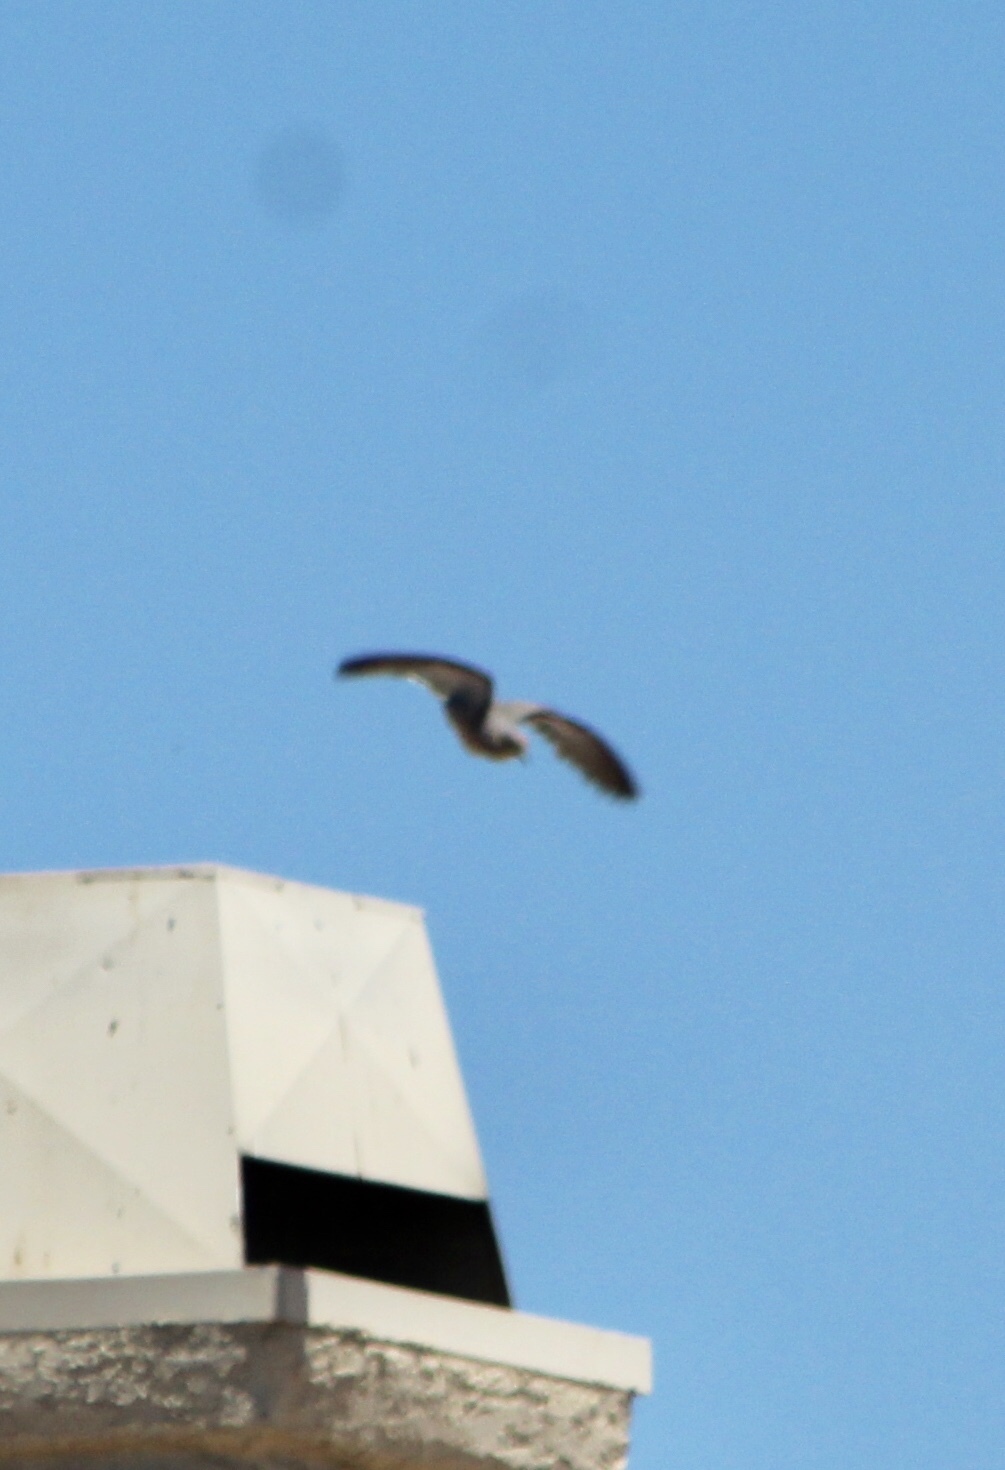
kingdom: Animalia
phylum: Chordata
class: Aves
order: Columbiformes
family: Columbidae
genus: Zenaida
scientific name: Zenaida macroura
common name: Mourning dove
